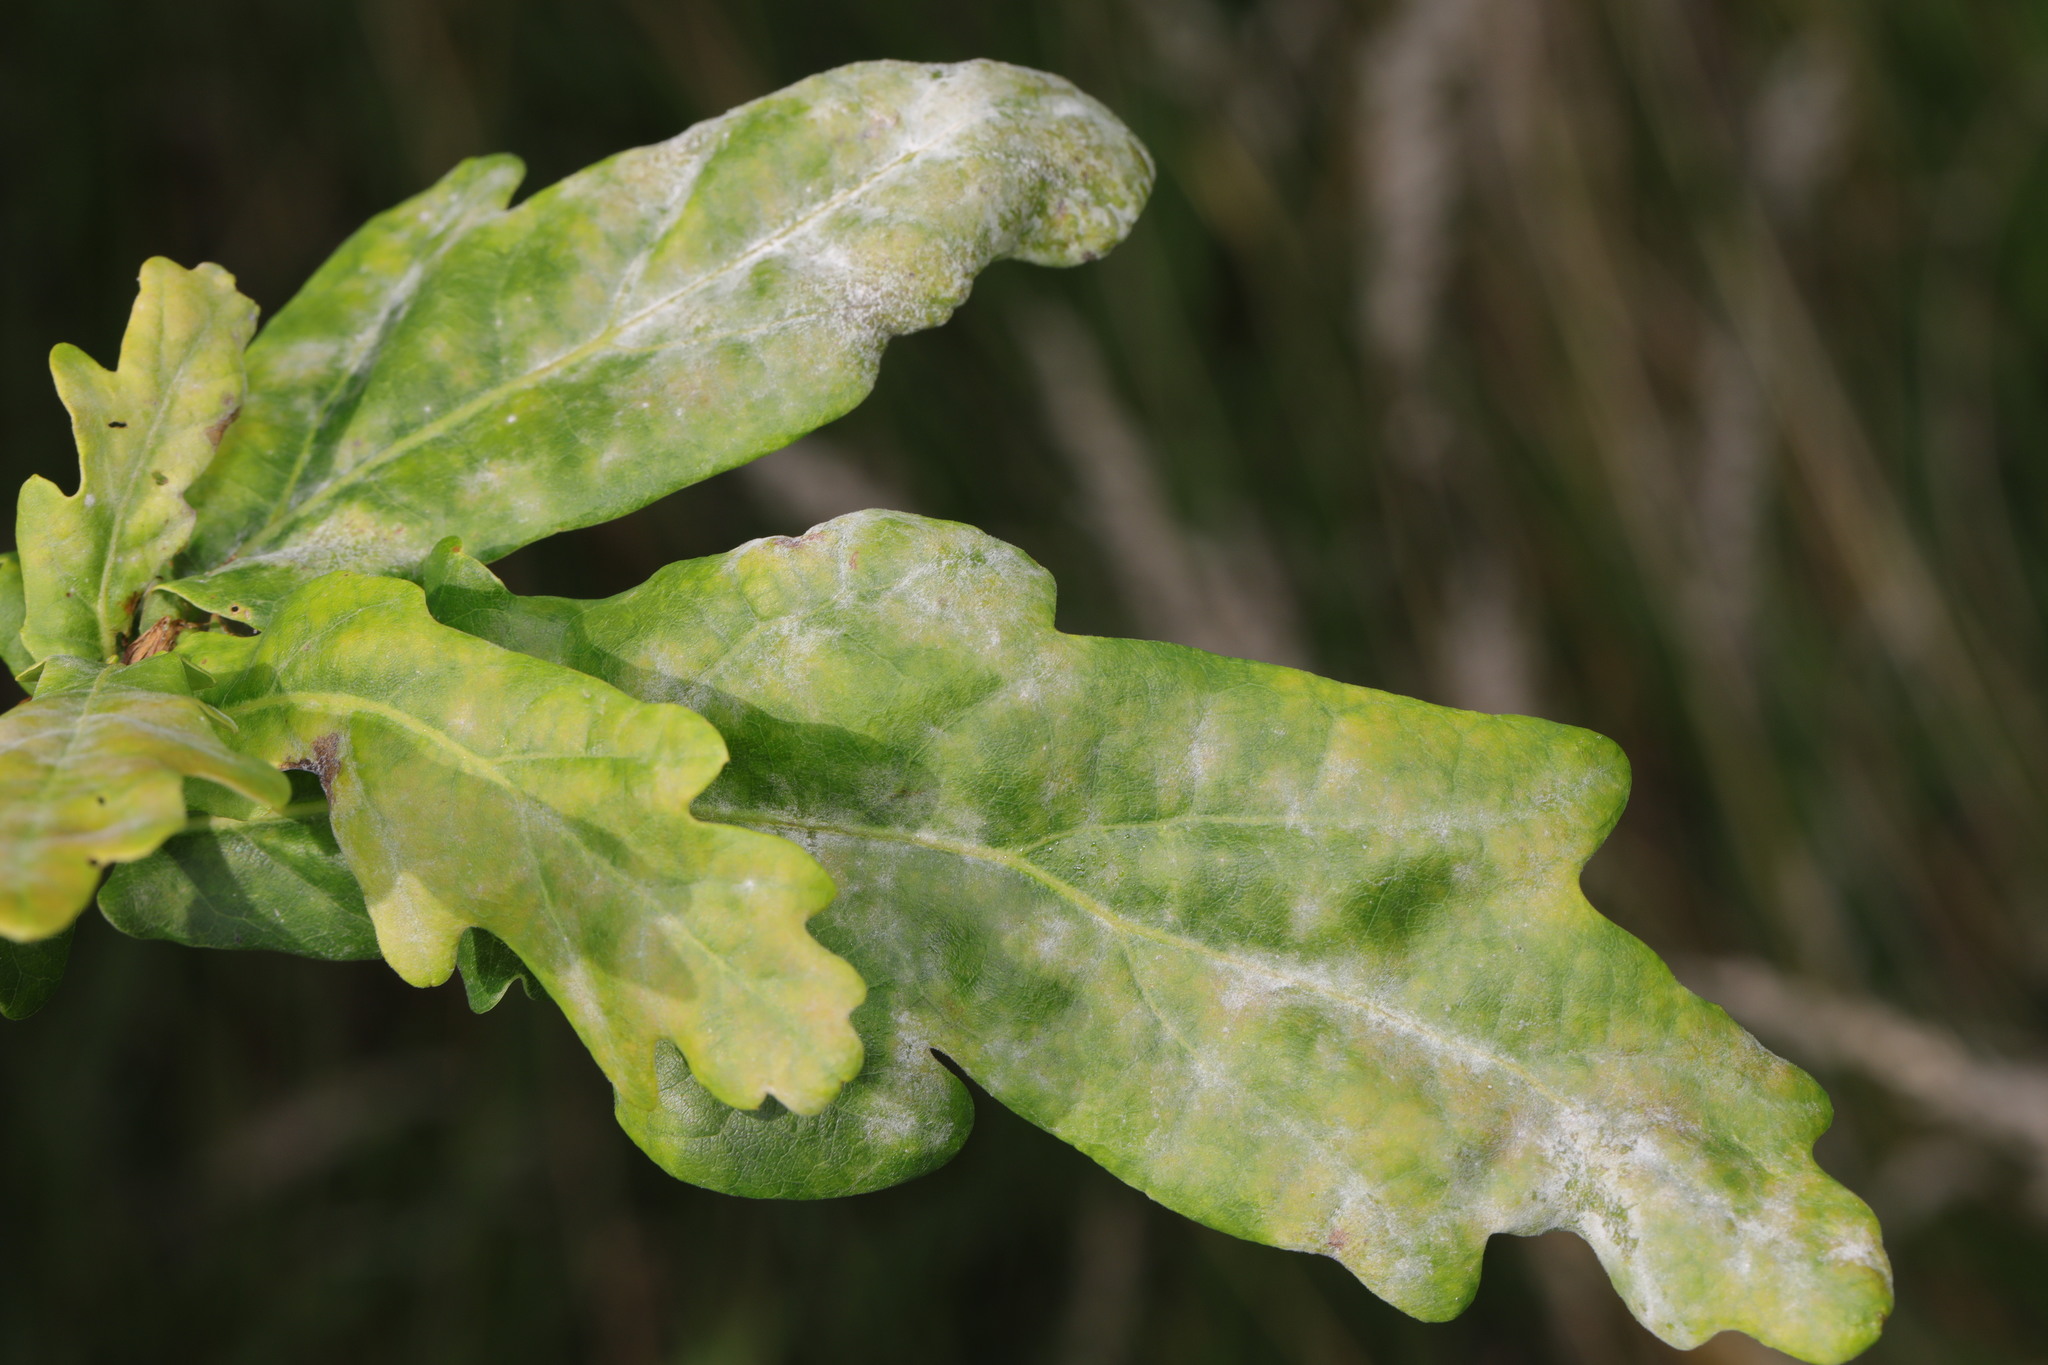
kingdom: Fungi
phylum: Ascomycota
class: Leotiomycetes
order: Helotiales
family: Erysiphaceae
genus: Erysiphe
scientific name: Erysiphe alphitoides
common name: Oak mildew
